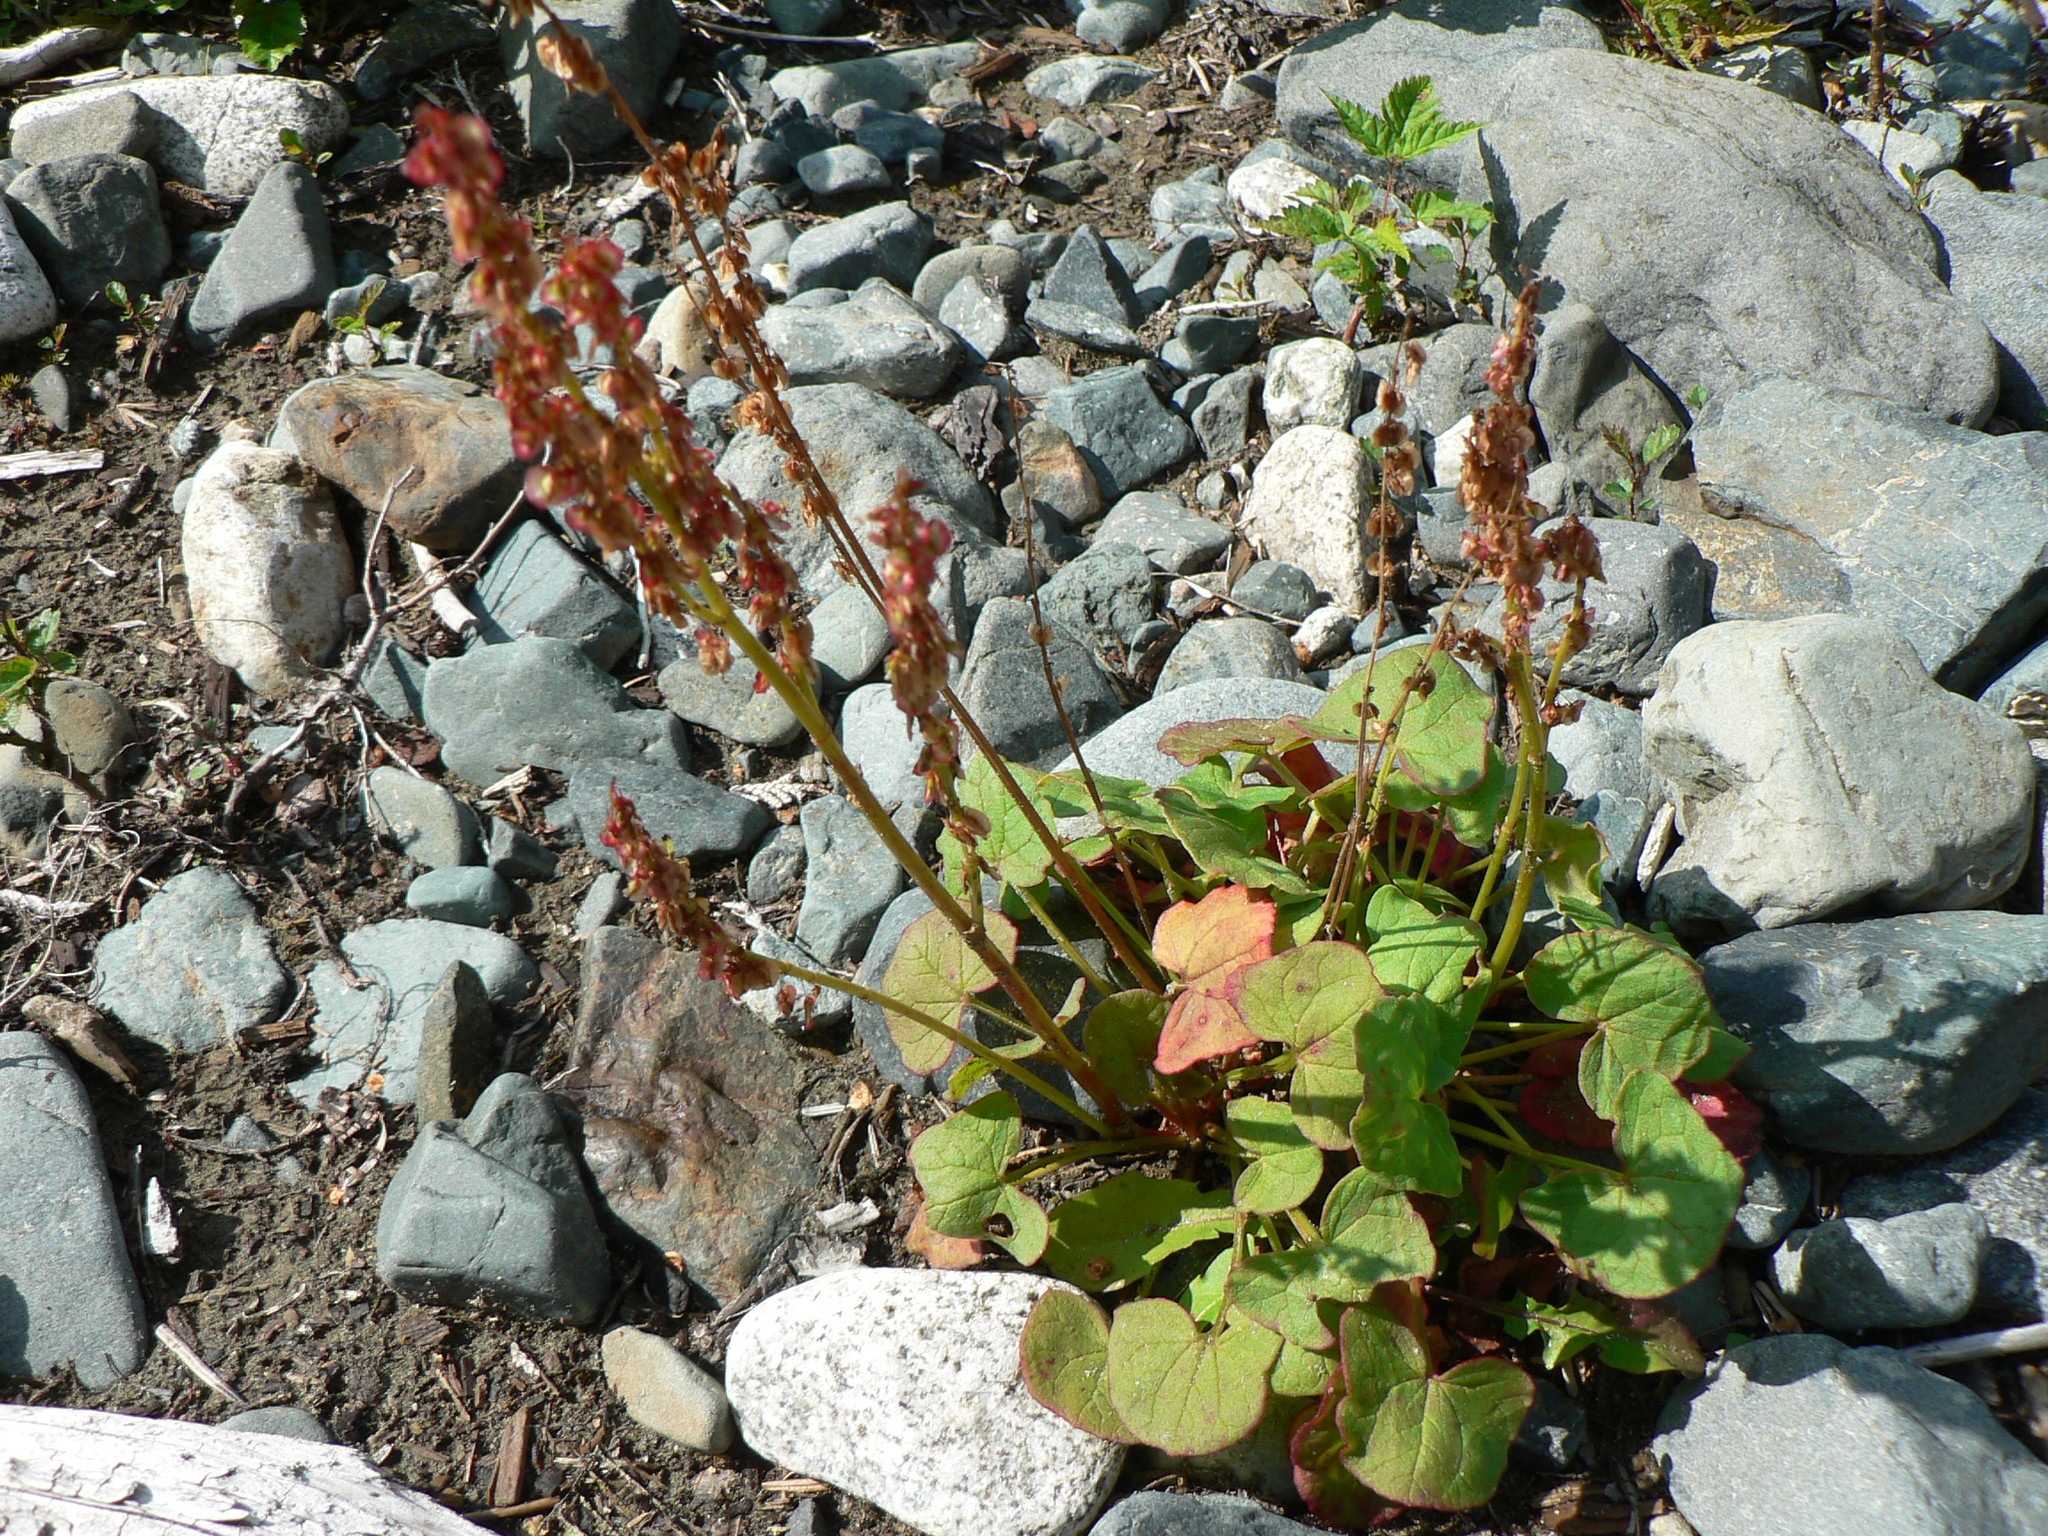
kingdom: Plantae
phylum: Tracheophyta
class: Magnoliopsida
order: Caryophyllales
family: Polygonaceae
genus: Oxyria
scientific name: Oxyria digyna
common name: Alpine mountain-sorrel
